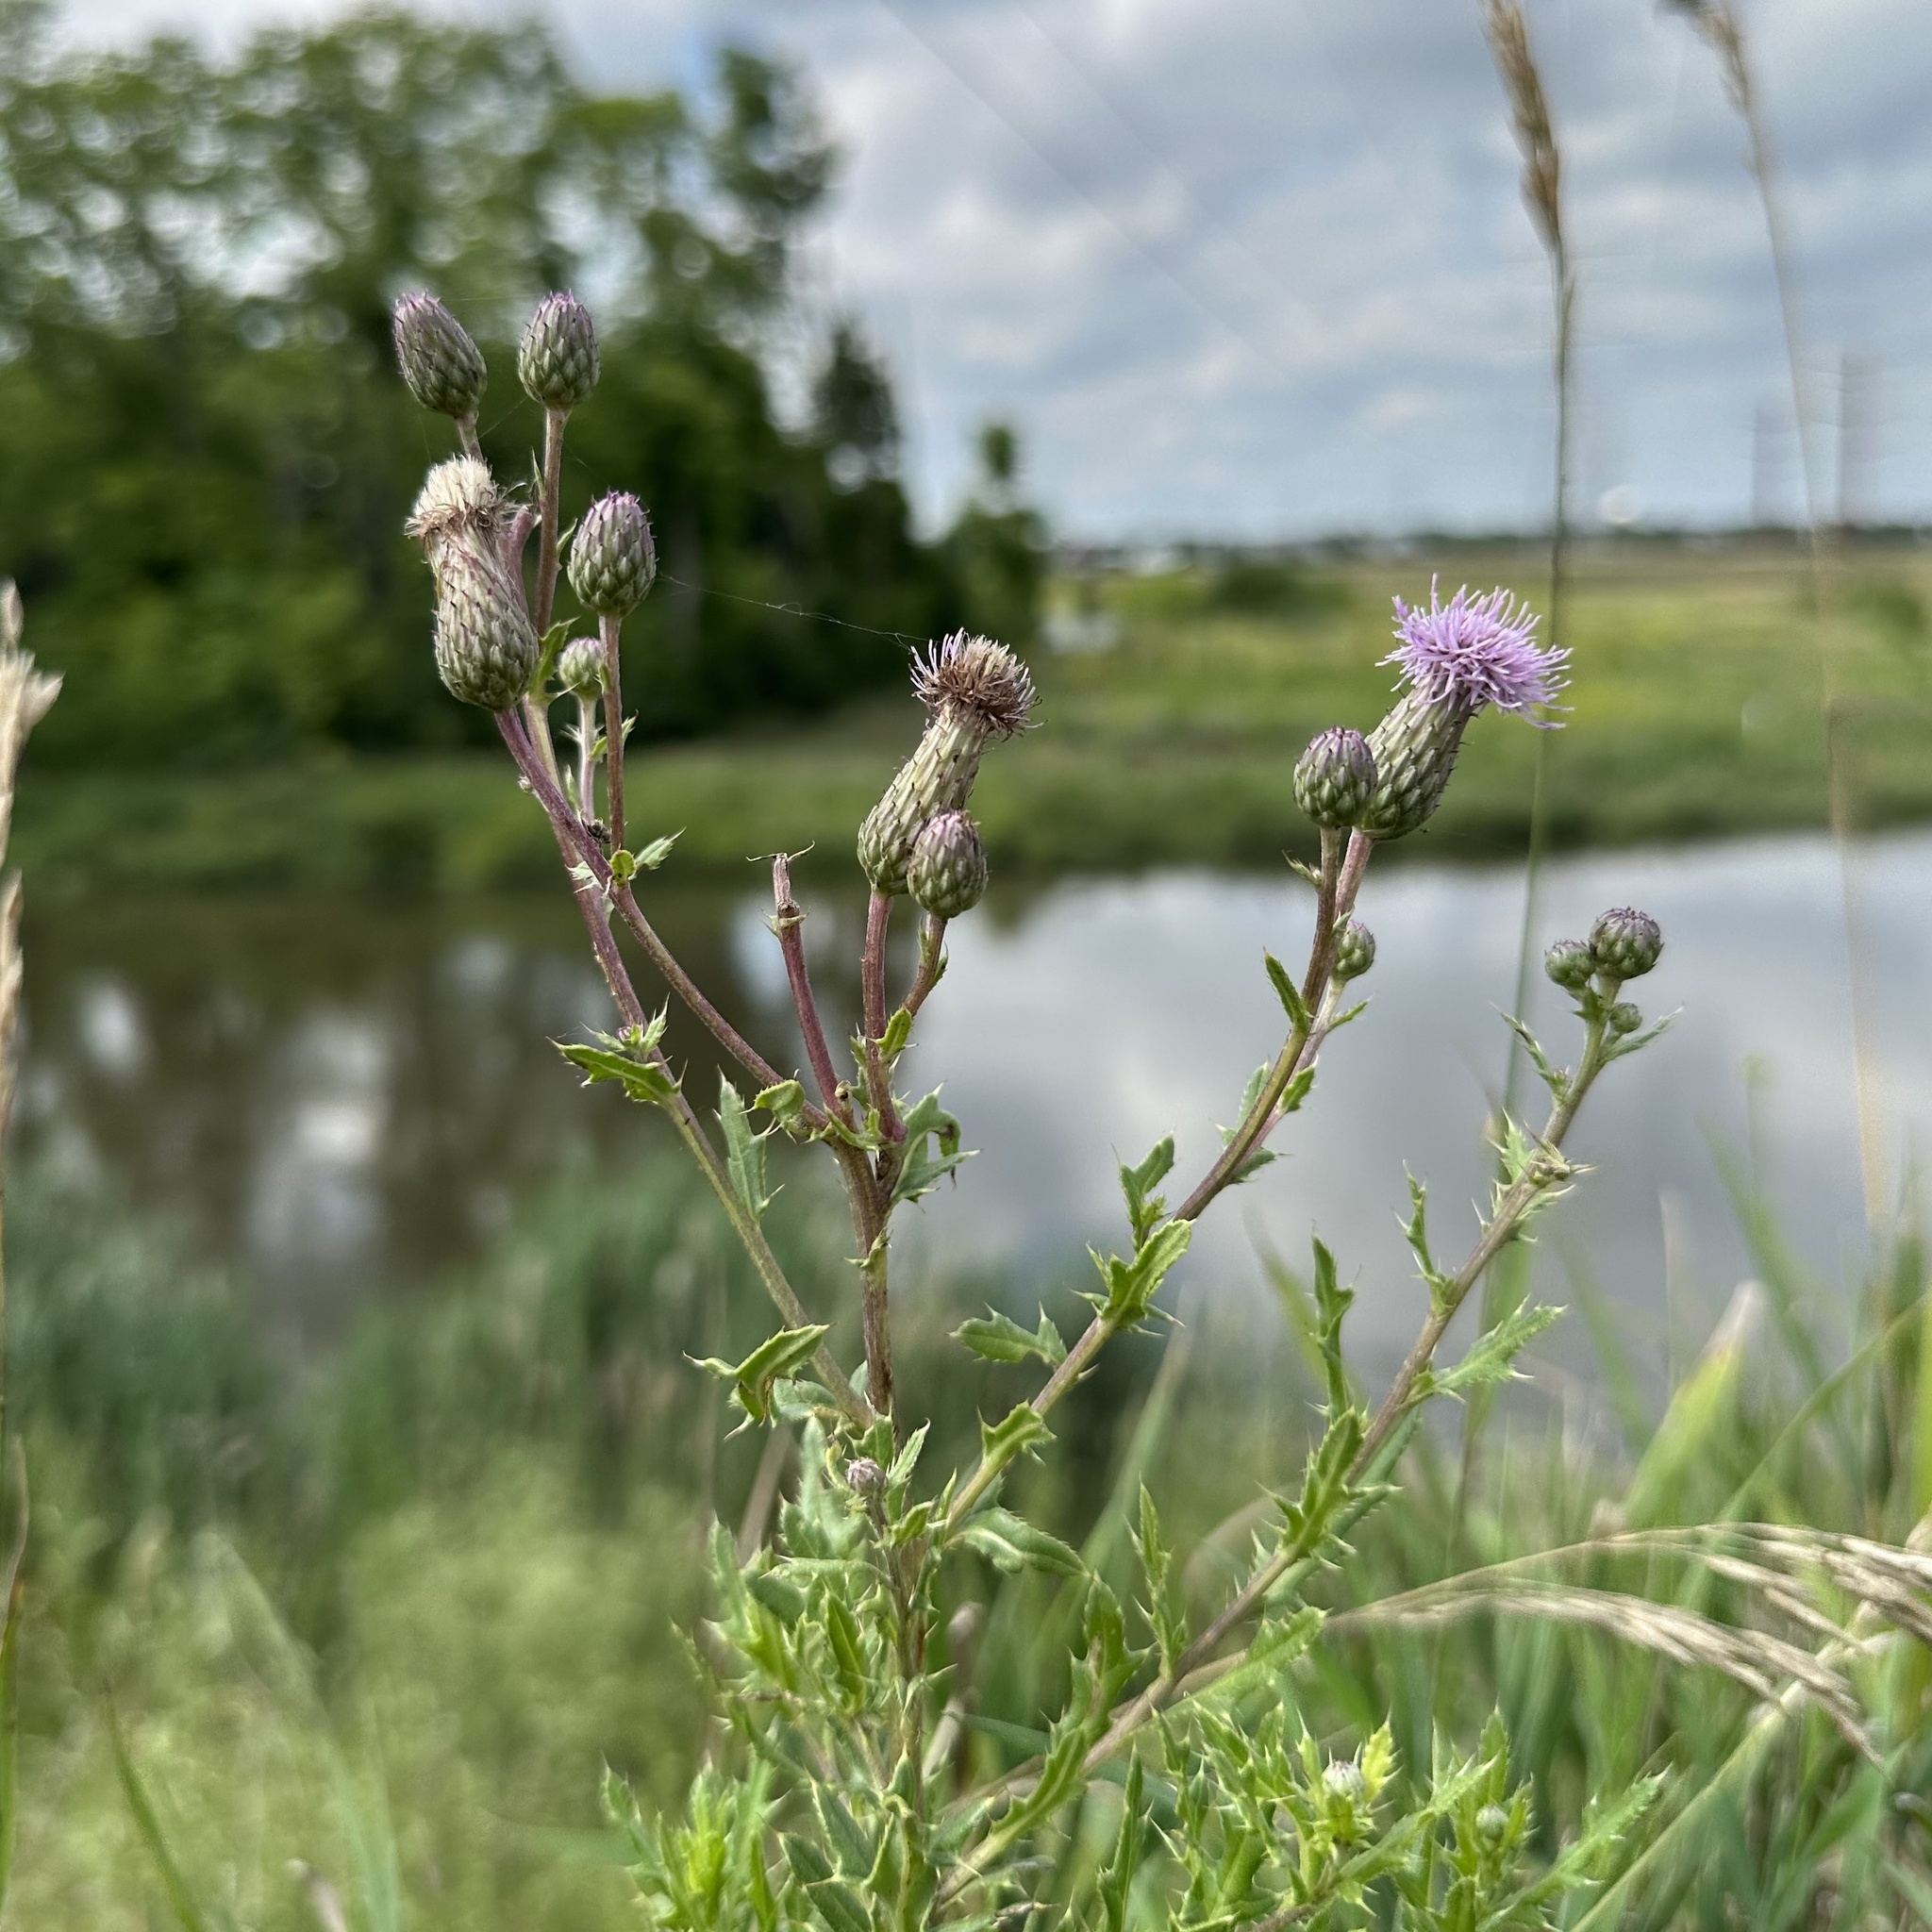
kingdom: Plantae
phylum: Tracheophyta
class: Magnoliopsida
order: Asterales
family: Asteraceae
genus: Cirsium
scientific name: Cirsium arvense
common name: Creeping thistle
